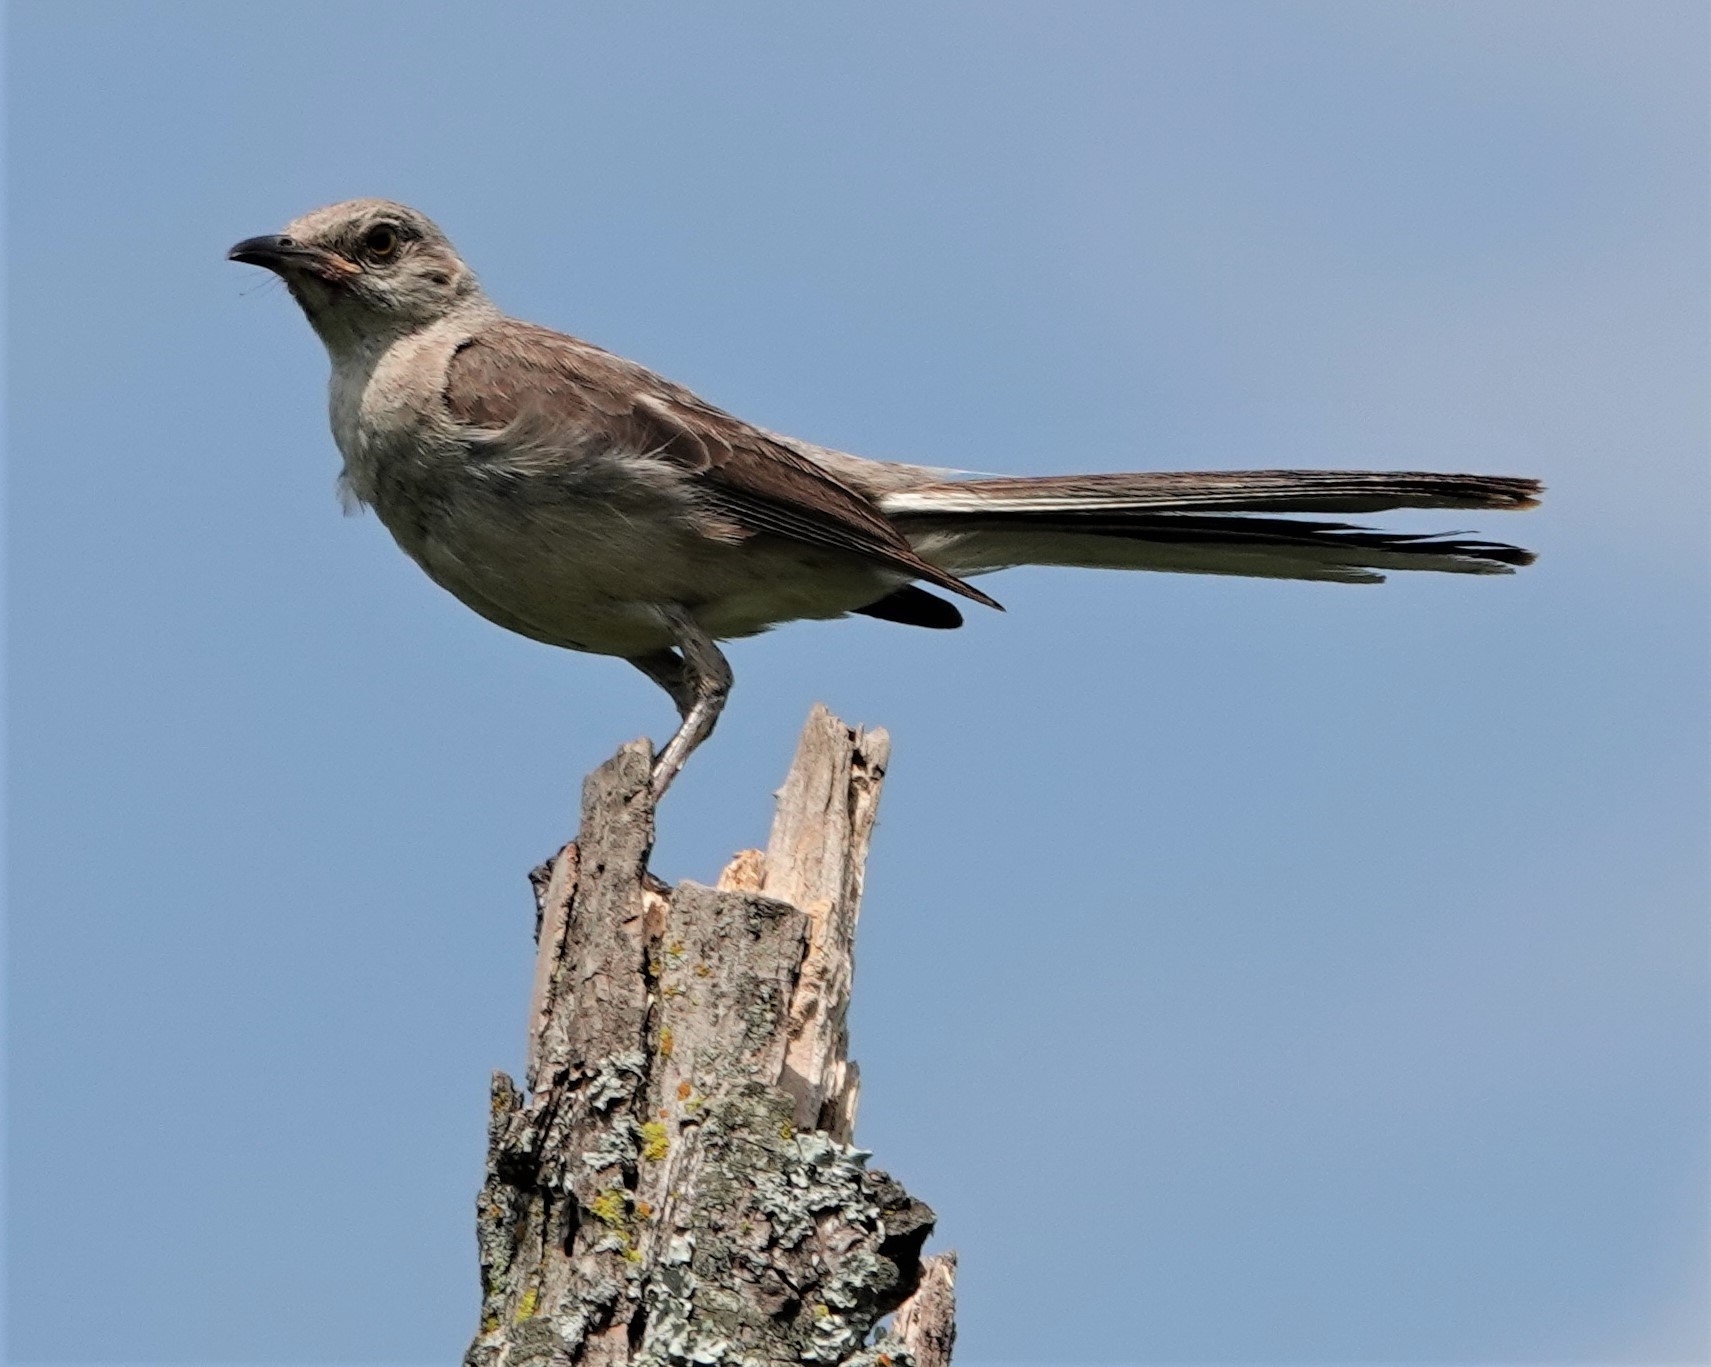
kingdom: Animalia
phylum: Chordata
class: Aves
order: Passeriformes
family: Mimidae
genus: Mimus
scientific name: Mimus polyglottos
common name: Northern mockingbird
